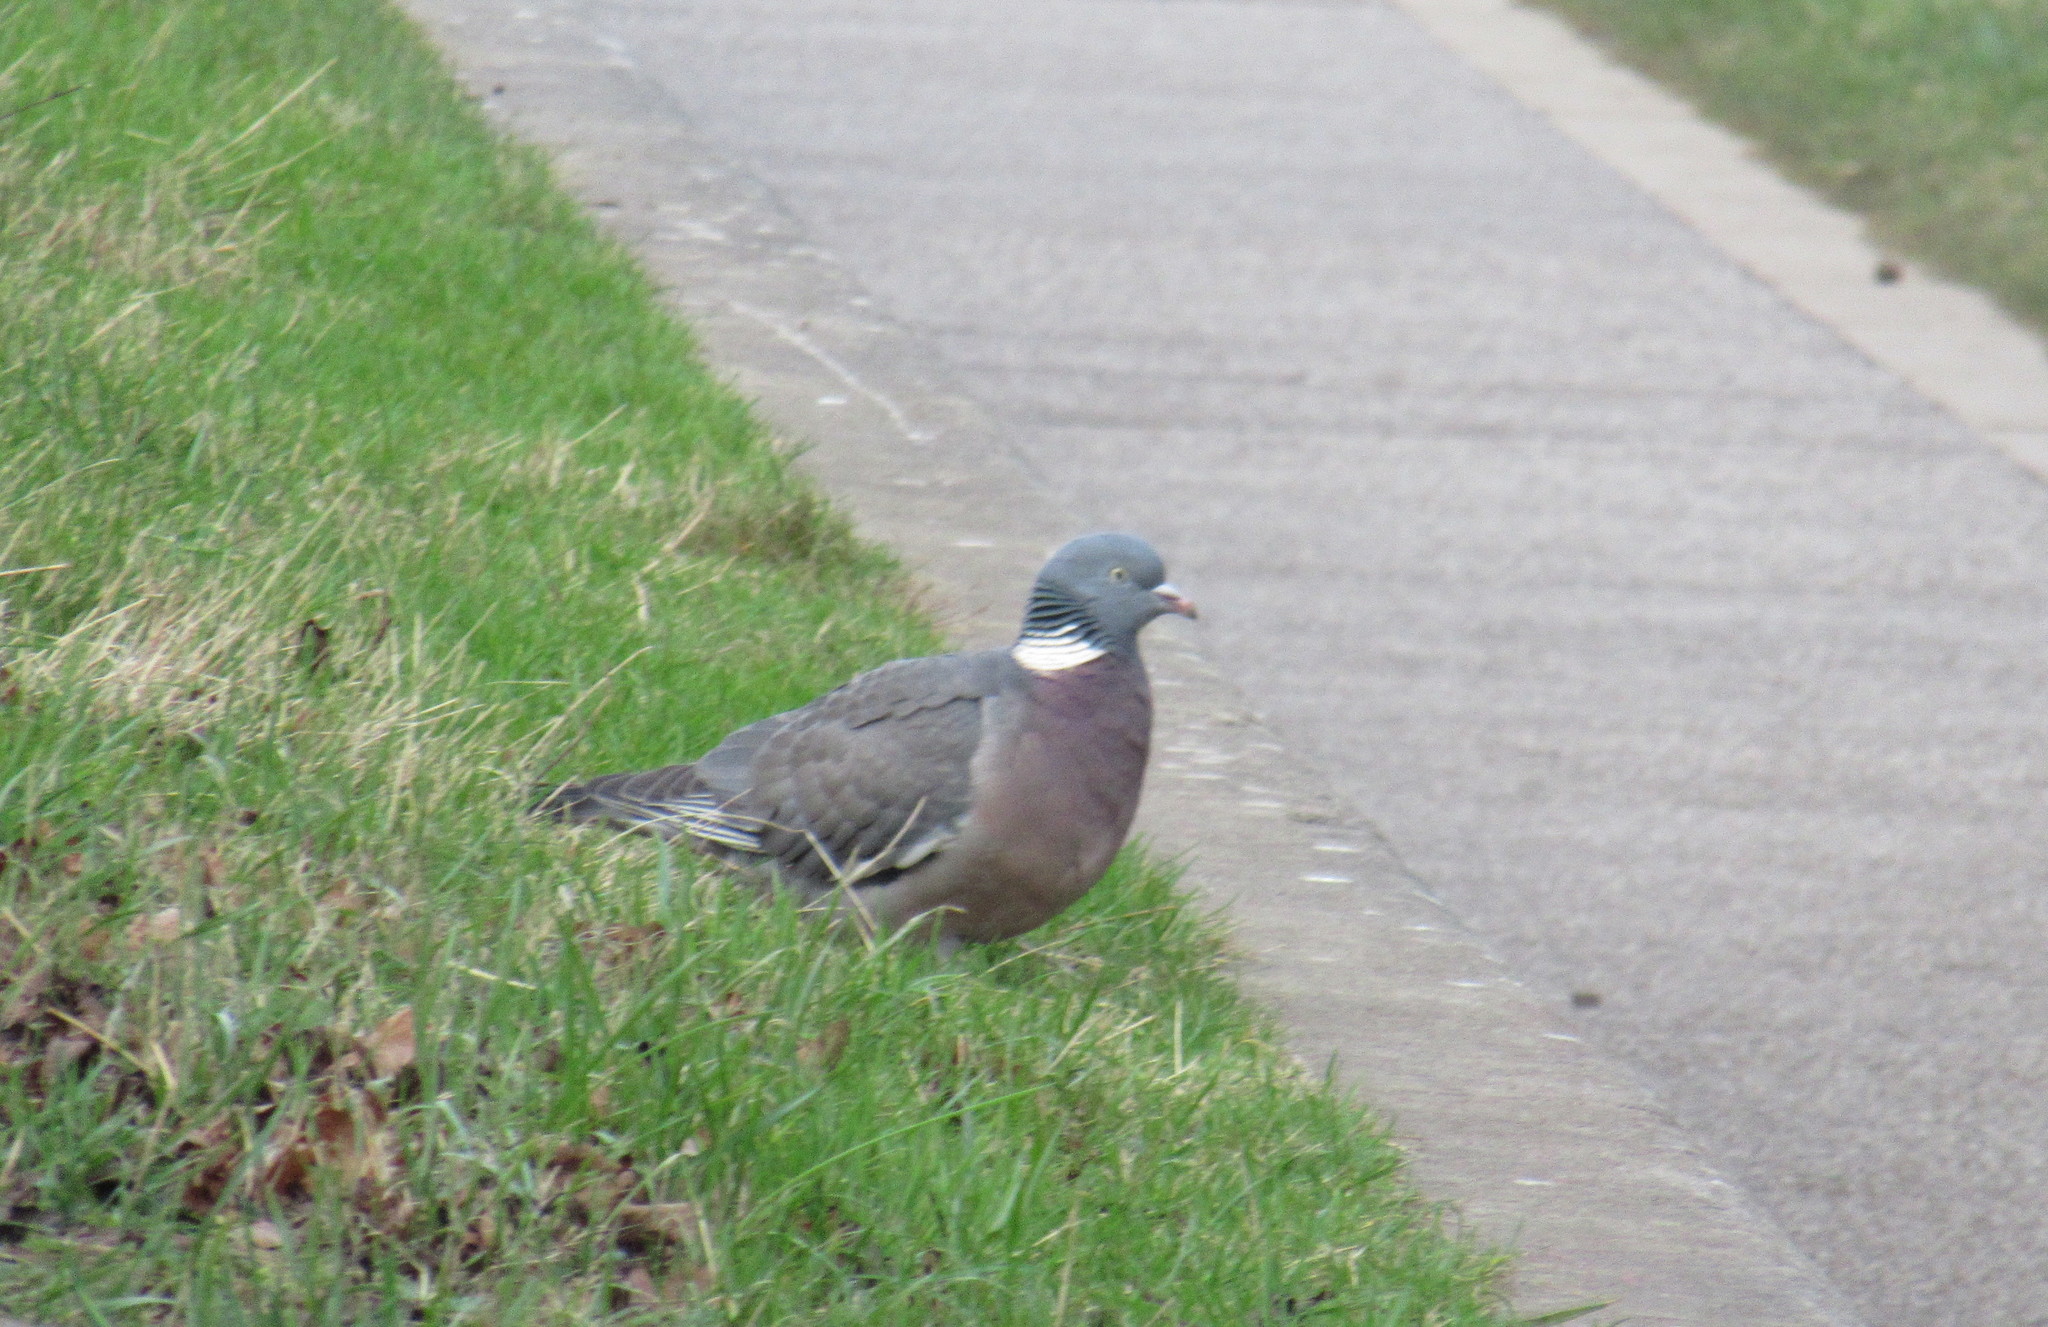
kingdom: Animalia
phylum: Chordata
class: Aves
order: Columbiformes
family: Columbidae
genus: Columba
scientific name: Columba palumbus
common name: Common wood pigeon
